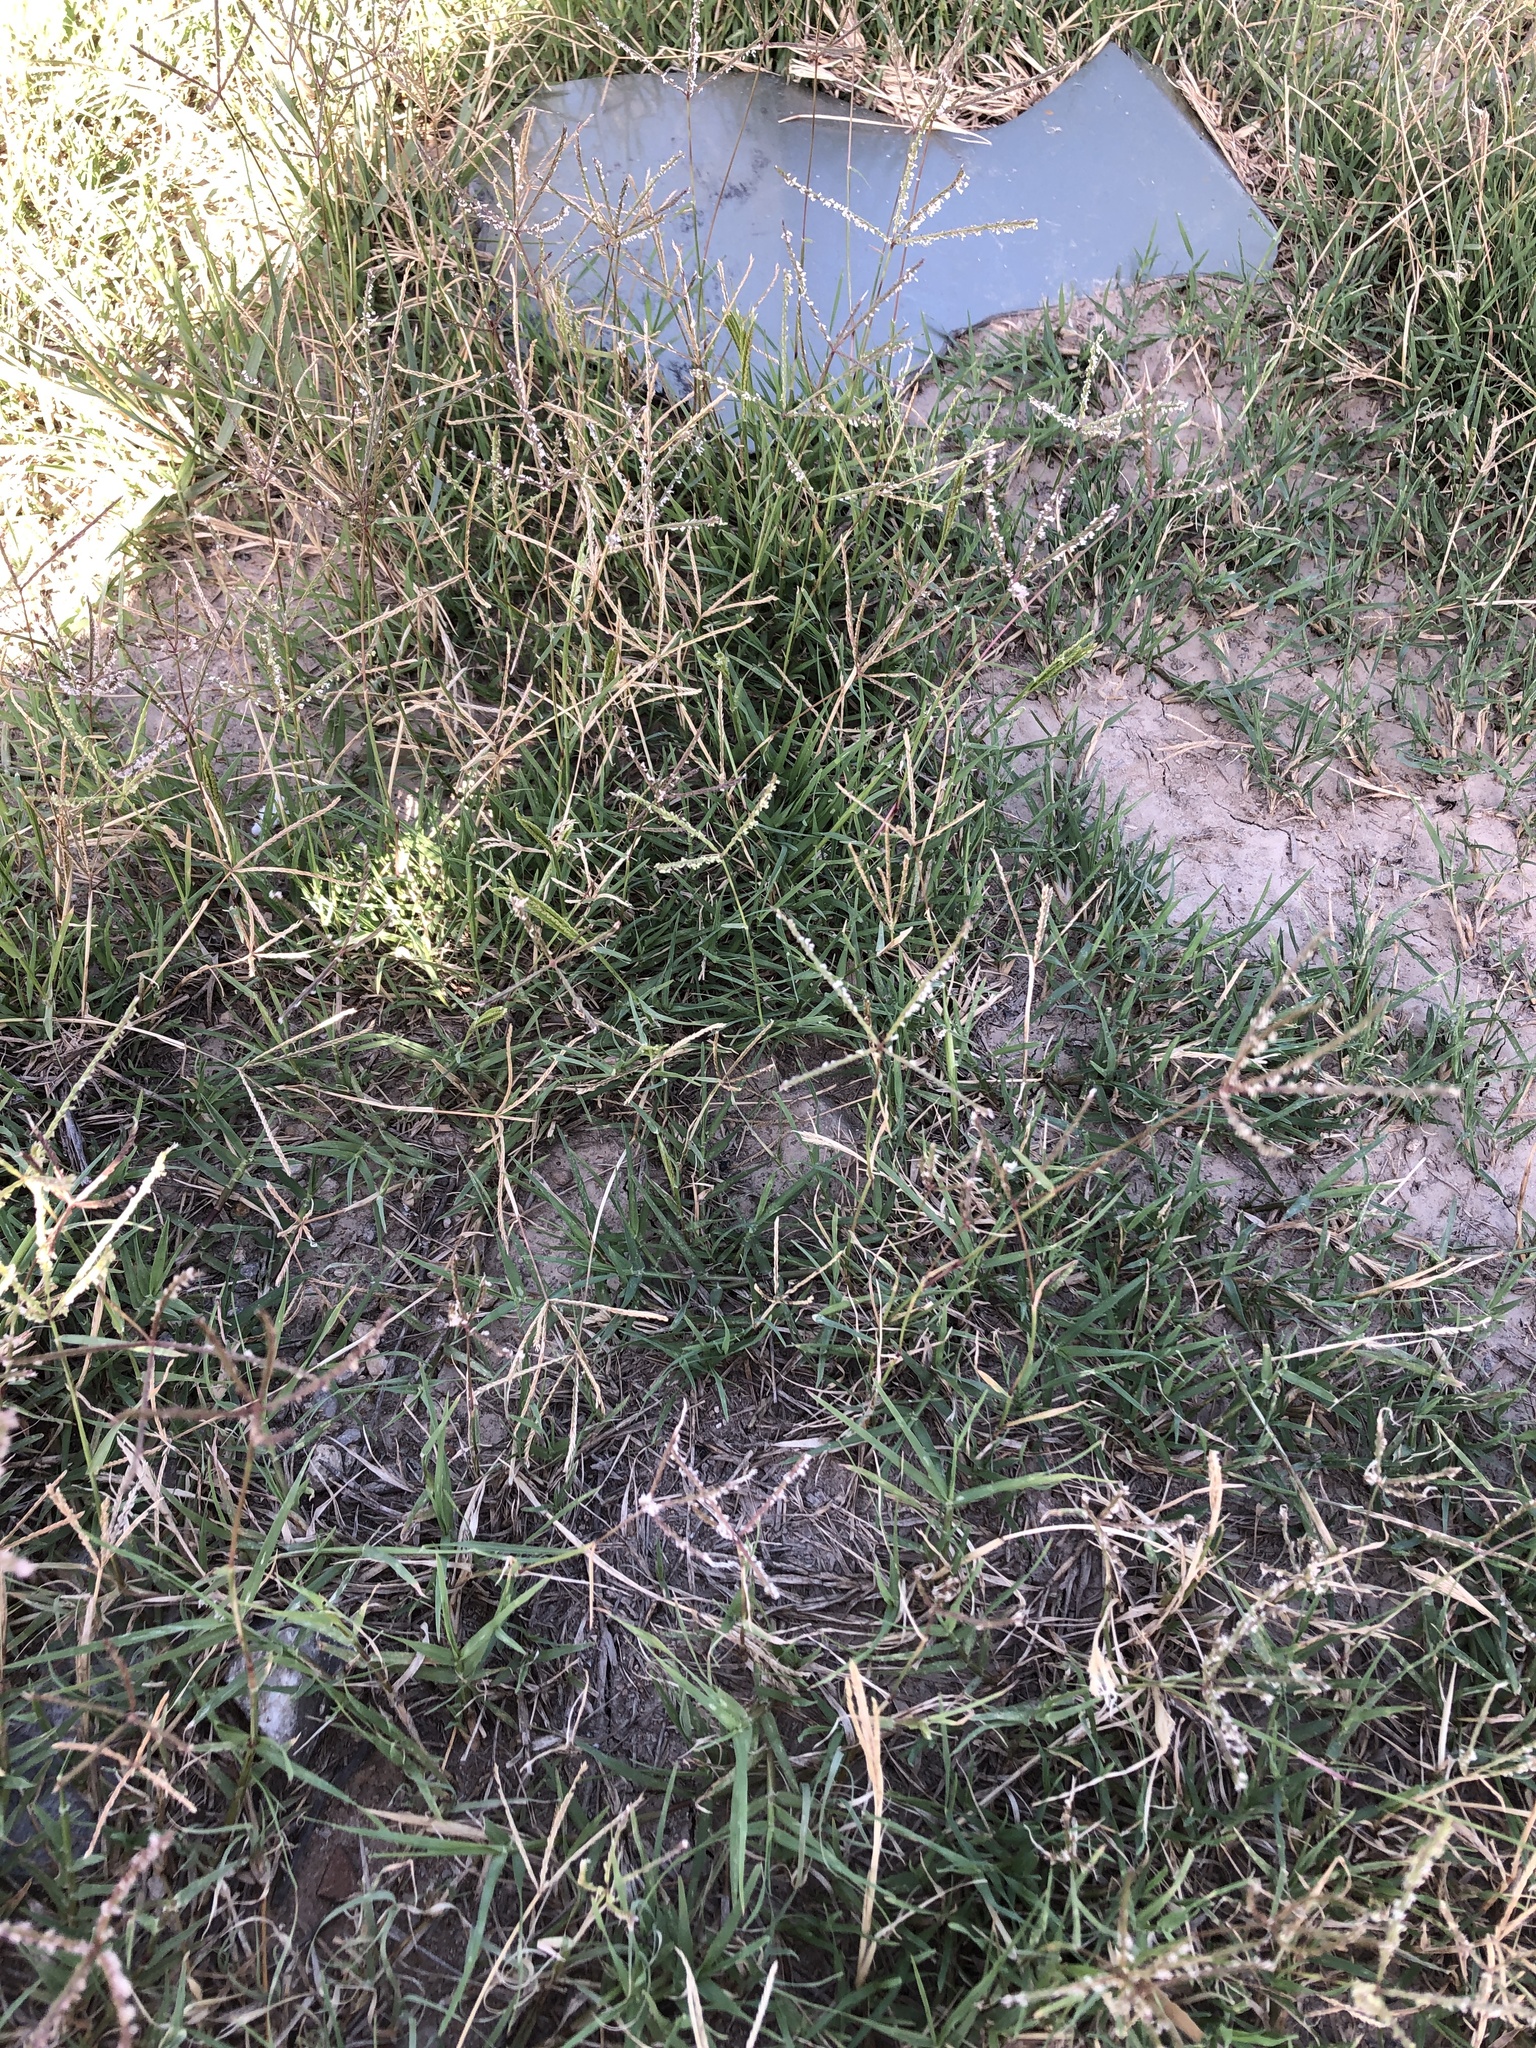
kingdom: Plantae
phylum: Tracheophyta
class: Liliopsida
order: Poales
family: Poaceae
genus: Cynodon
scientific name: Cynodon dactylon
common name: Bermuda grass
